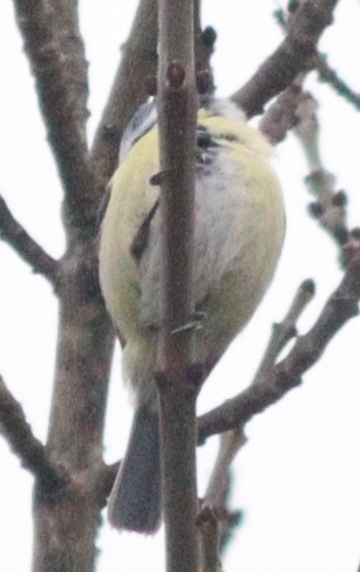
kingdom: Animalia
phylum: Chordata
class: Aves
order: Passeriformes
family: Paridae
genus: Cyanistes
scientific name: Cyanistes caeruleus
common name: Eurasian blue tit
